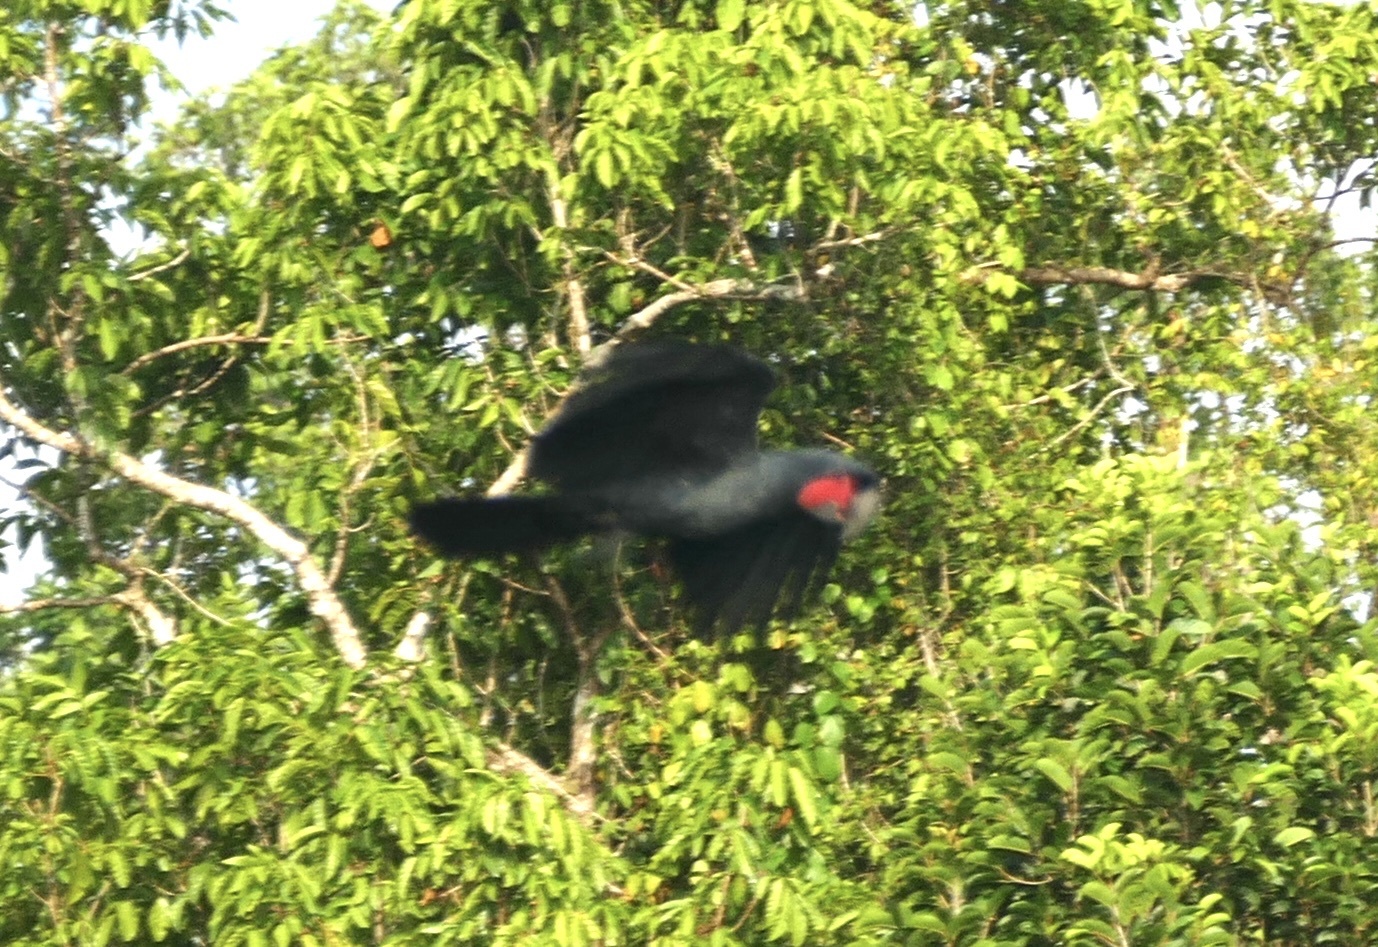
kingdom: Animalia
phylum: Chordata
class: Aves
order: Psittaciformes
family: Psittacidae
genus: Probosciger
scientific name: Probosciger aterrimus
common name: Palm cockatoo
